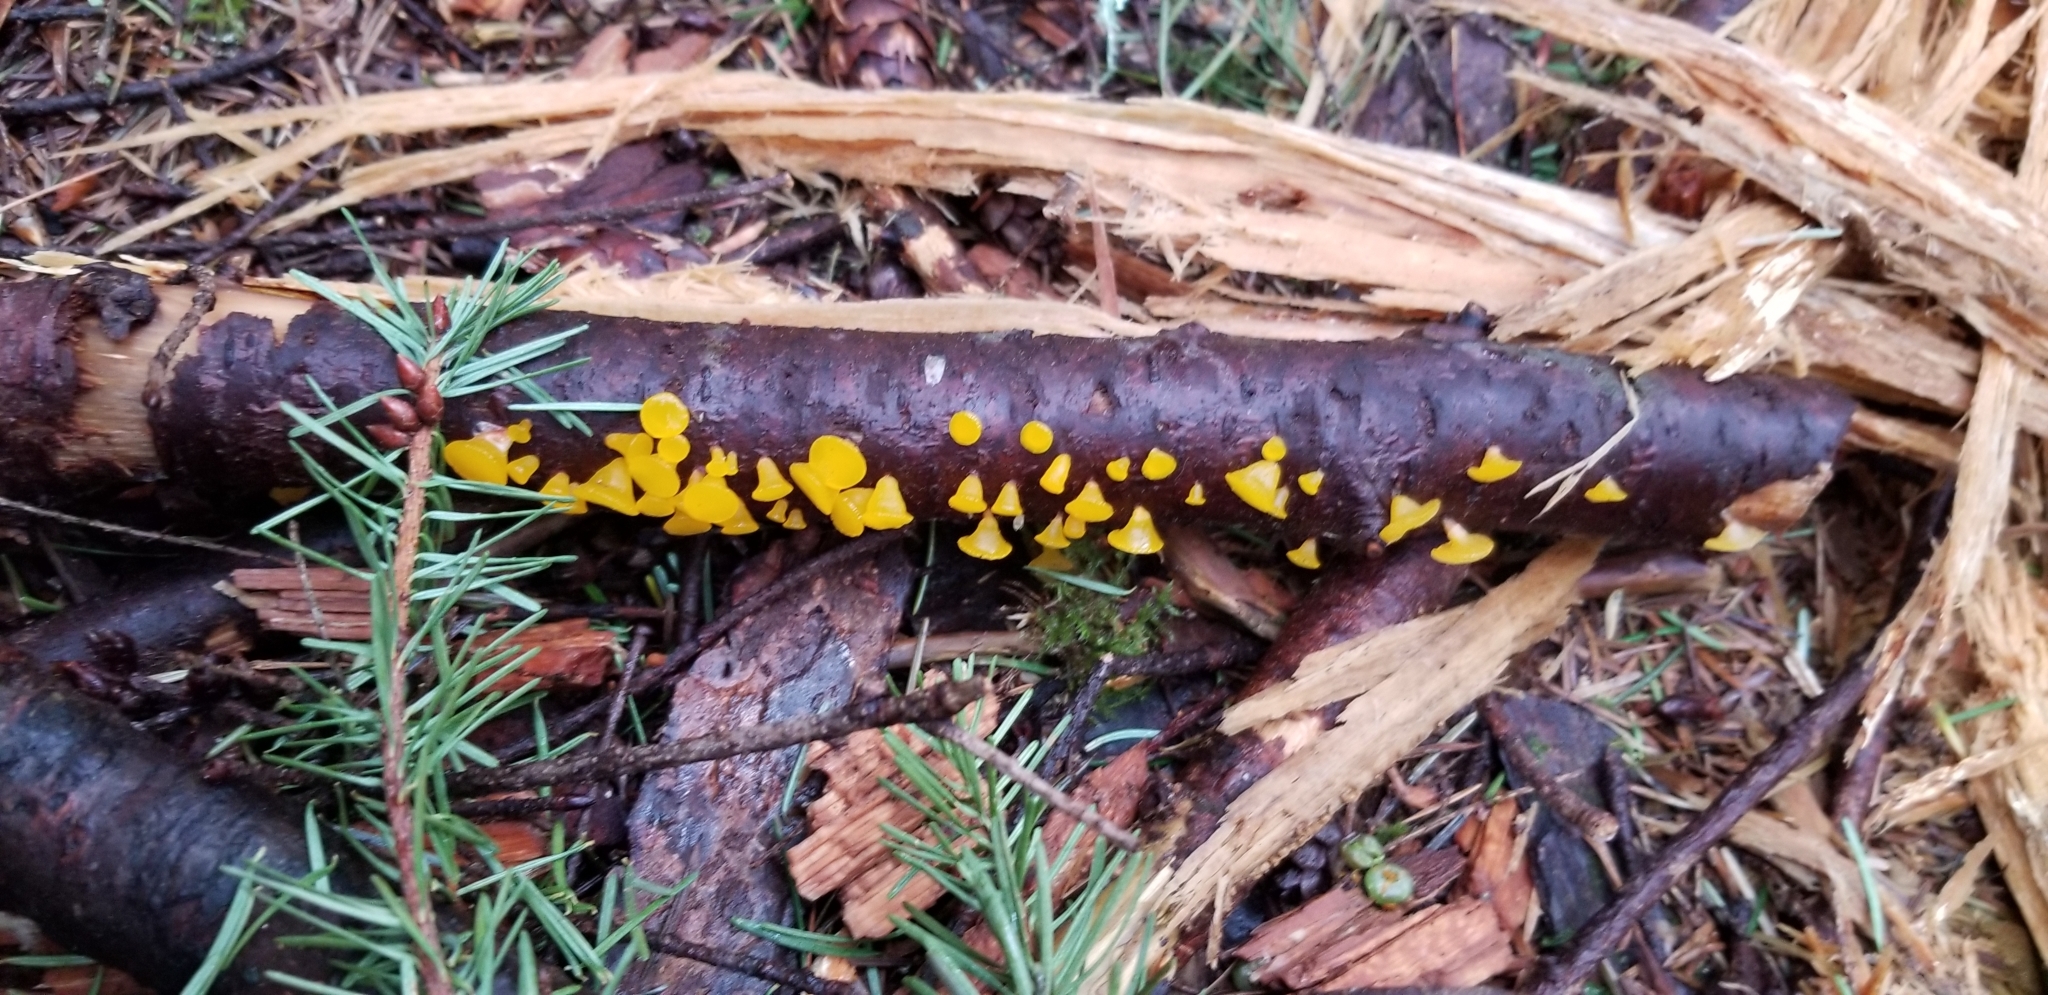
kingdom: Fungi
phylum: Basidiomycota
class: Dacrymycetes
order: Dacrymycetales
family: Dacrymycetaceae
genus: Guepiniopsis
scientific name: Guepiniopsis alpina
